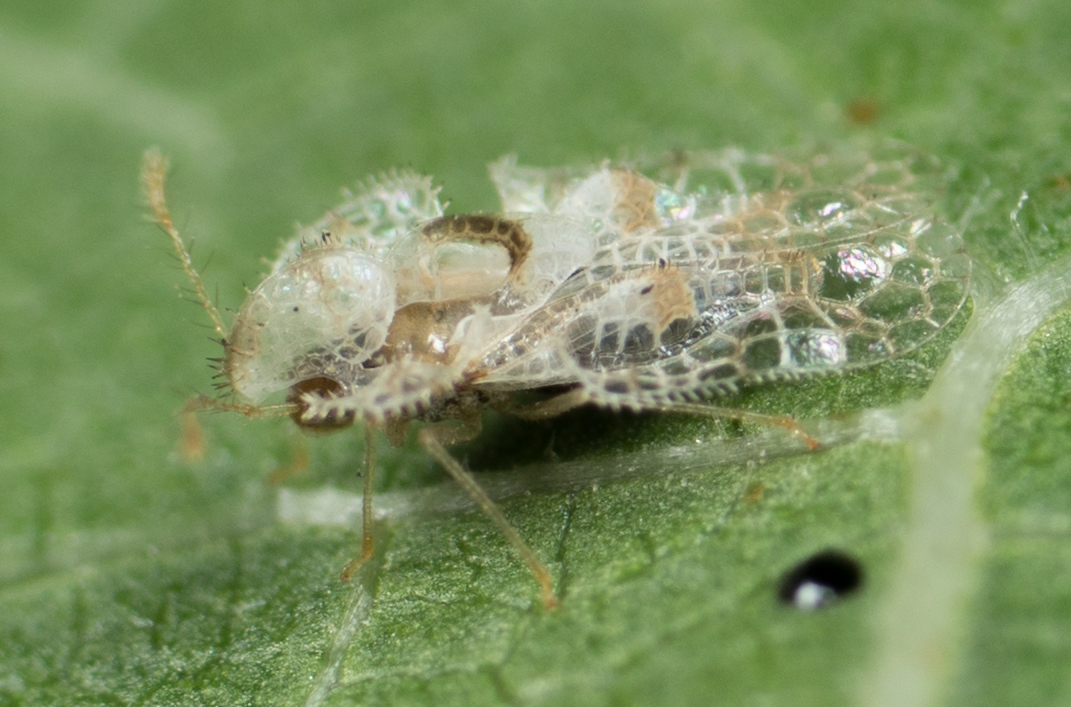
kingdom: Animalia
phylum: Arthropoda
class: Insecta
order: Hemiptera
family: Tingidae
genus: Corythucha
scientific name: Corythucha gossypii
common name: Cotton lace bug
